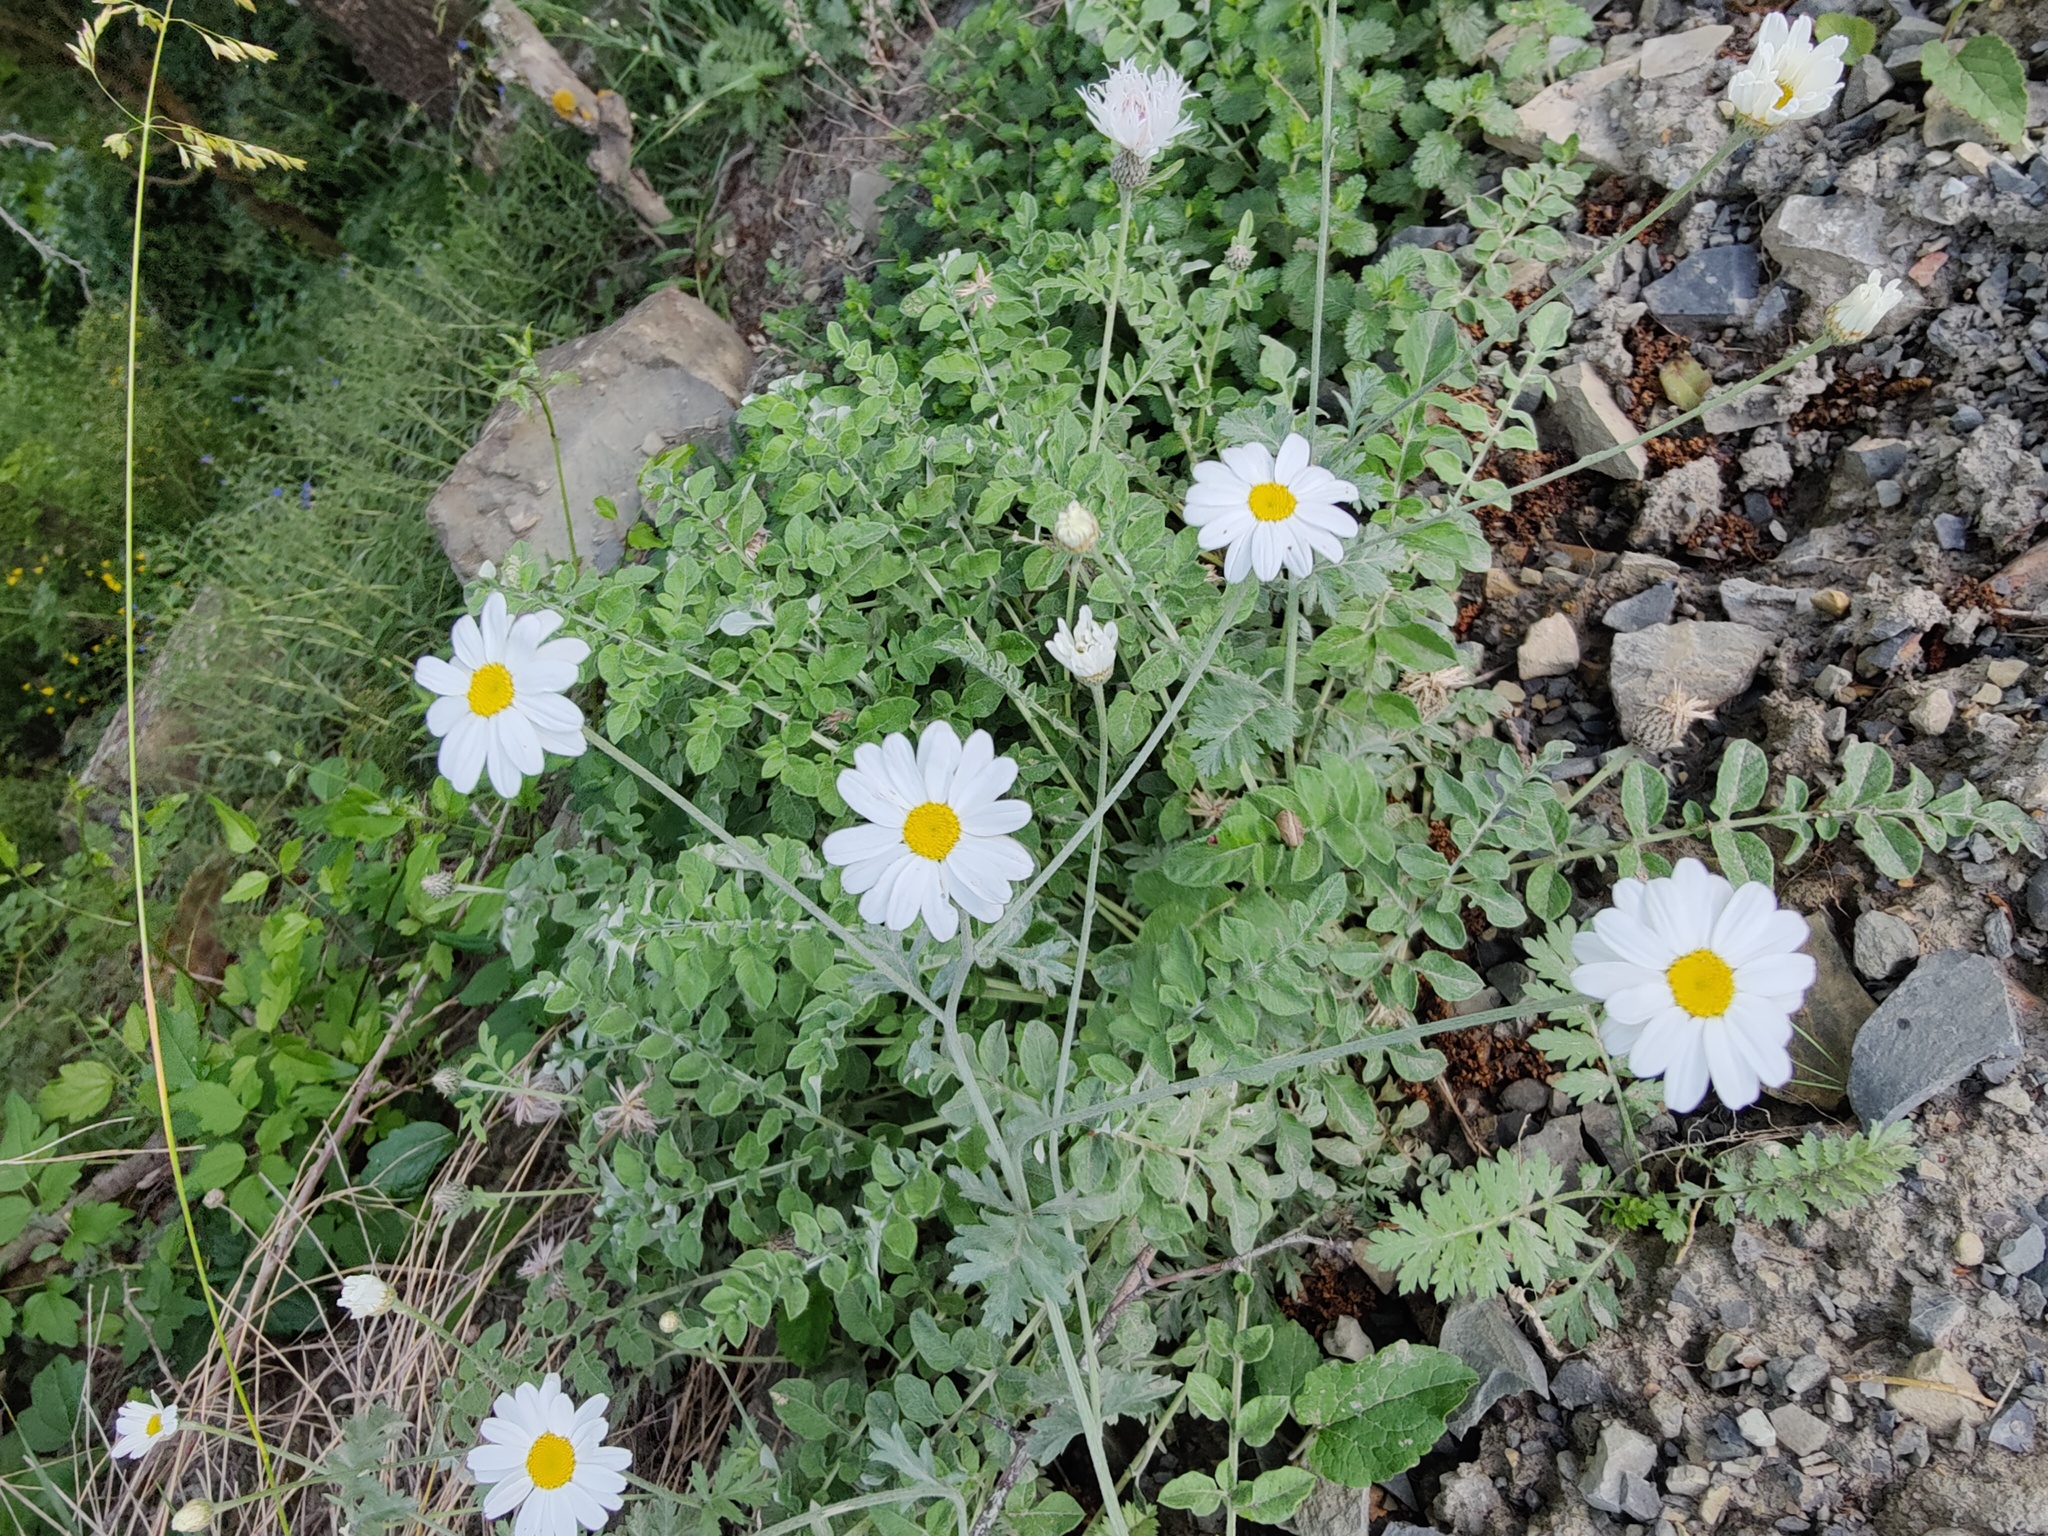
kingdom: Plantae
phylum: Tracheophyta
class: Magnoliopsida
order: Asterales
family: Asteraceae
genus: Tanacetum
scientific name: Tanacetum poteriifolium
